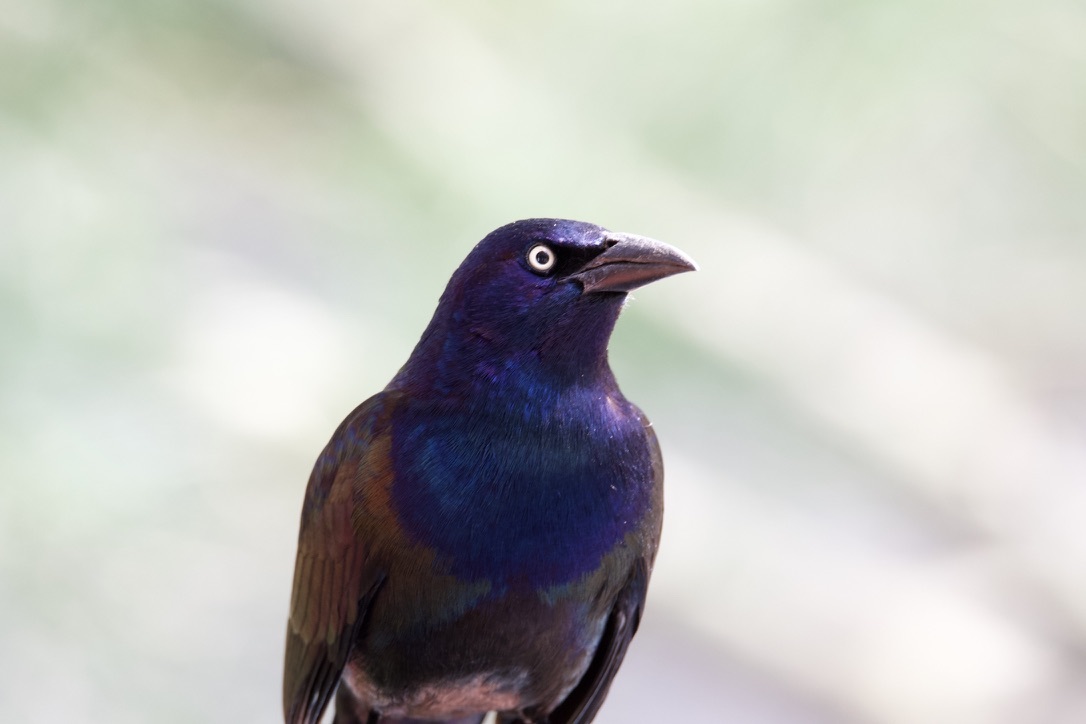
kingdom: Animalia
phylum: Chordata
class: Aves
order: Passeriformes
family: Icteridae
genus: Quiscalus
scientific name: Quiscalus quiscula
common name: Common grackle
